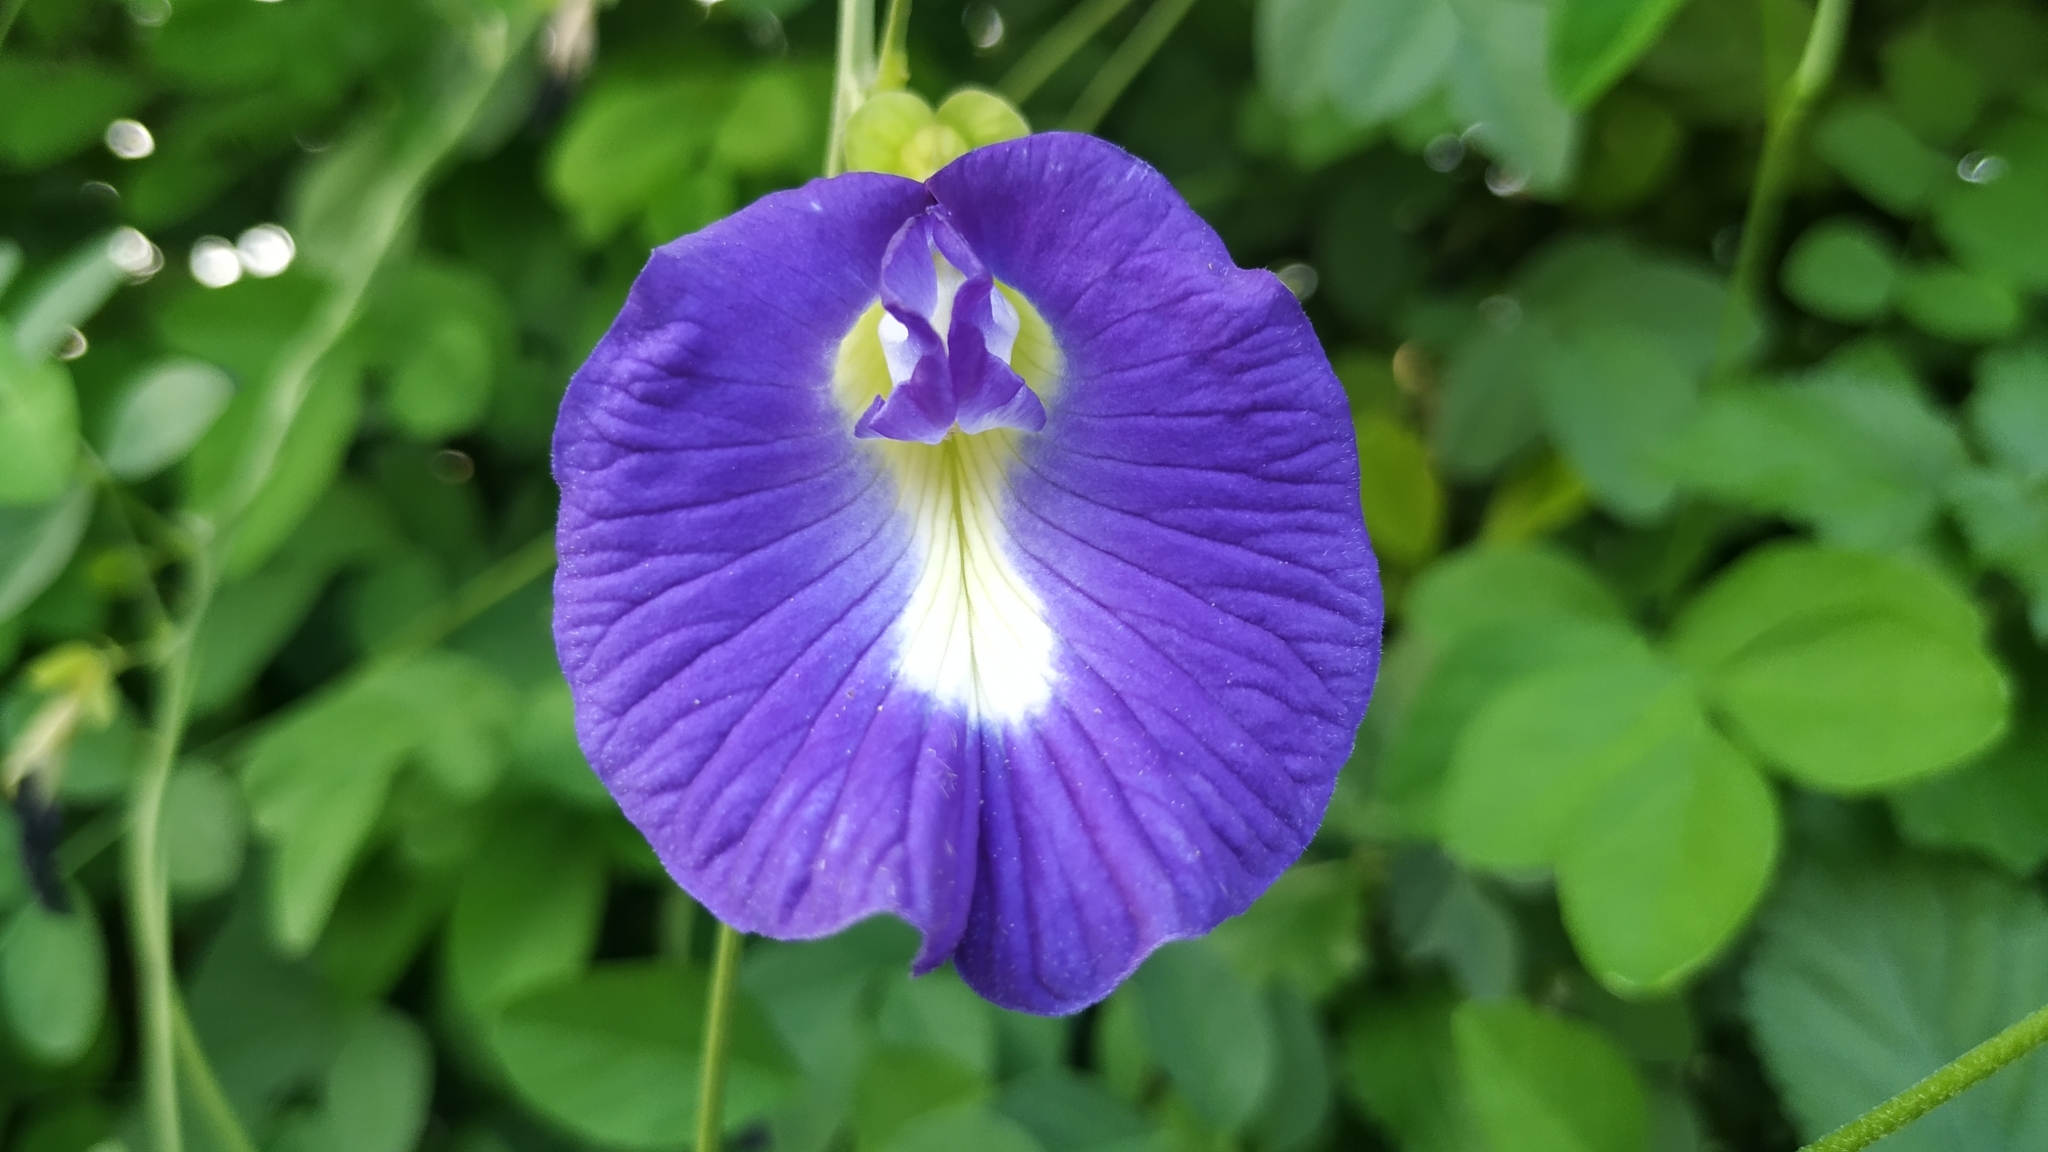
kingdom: Plantae
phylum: Tracheophyta
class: Magnoliopsida
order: Fabales
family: Fabaceae
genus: Clitoria
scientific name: Clitoria ternatea
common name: Asian pigeonwings
